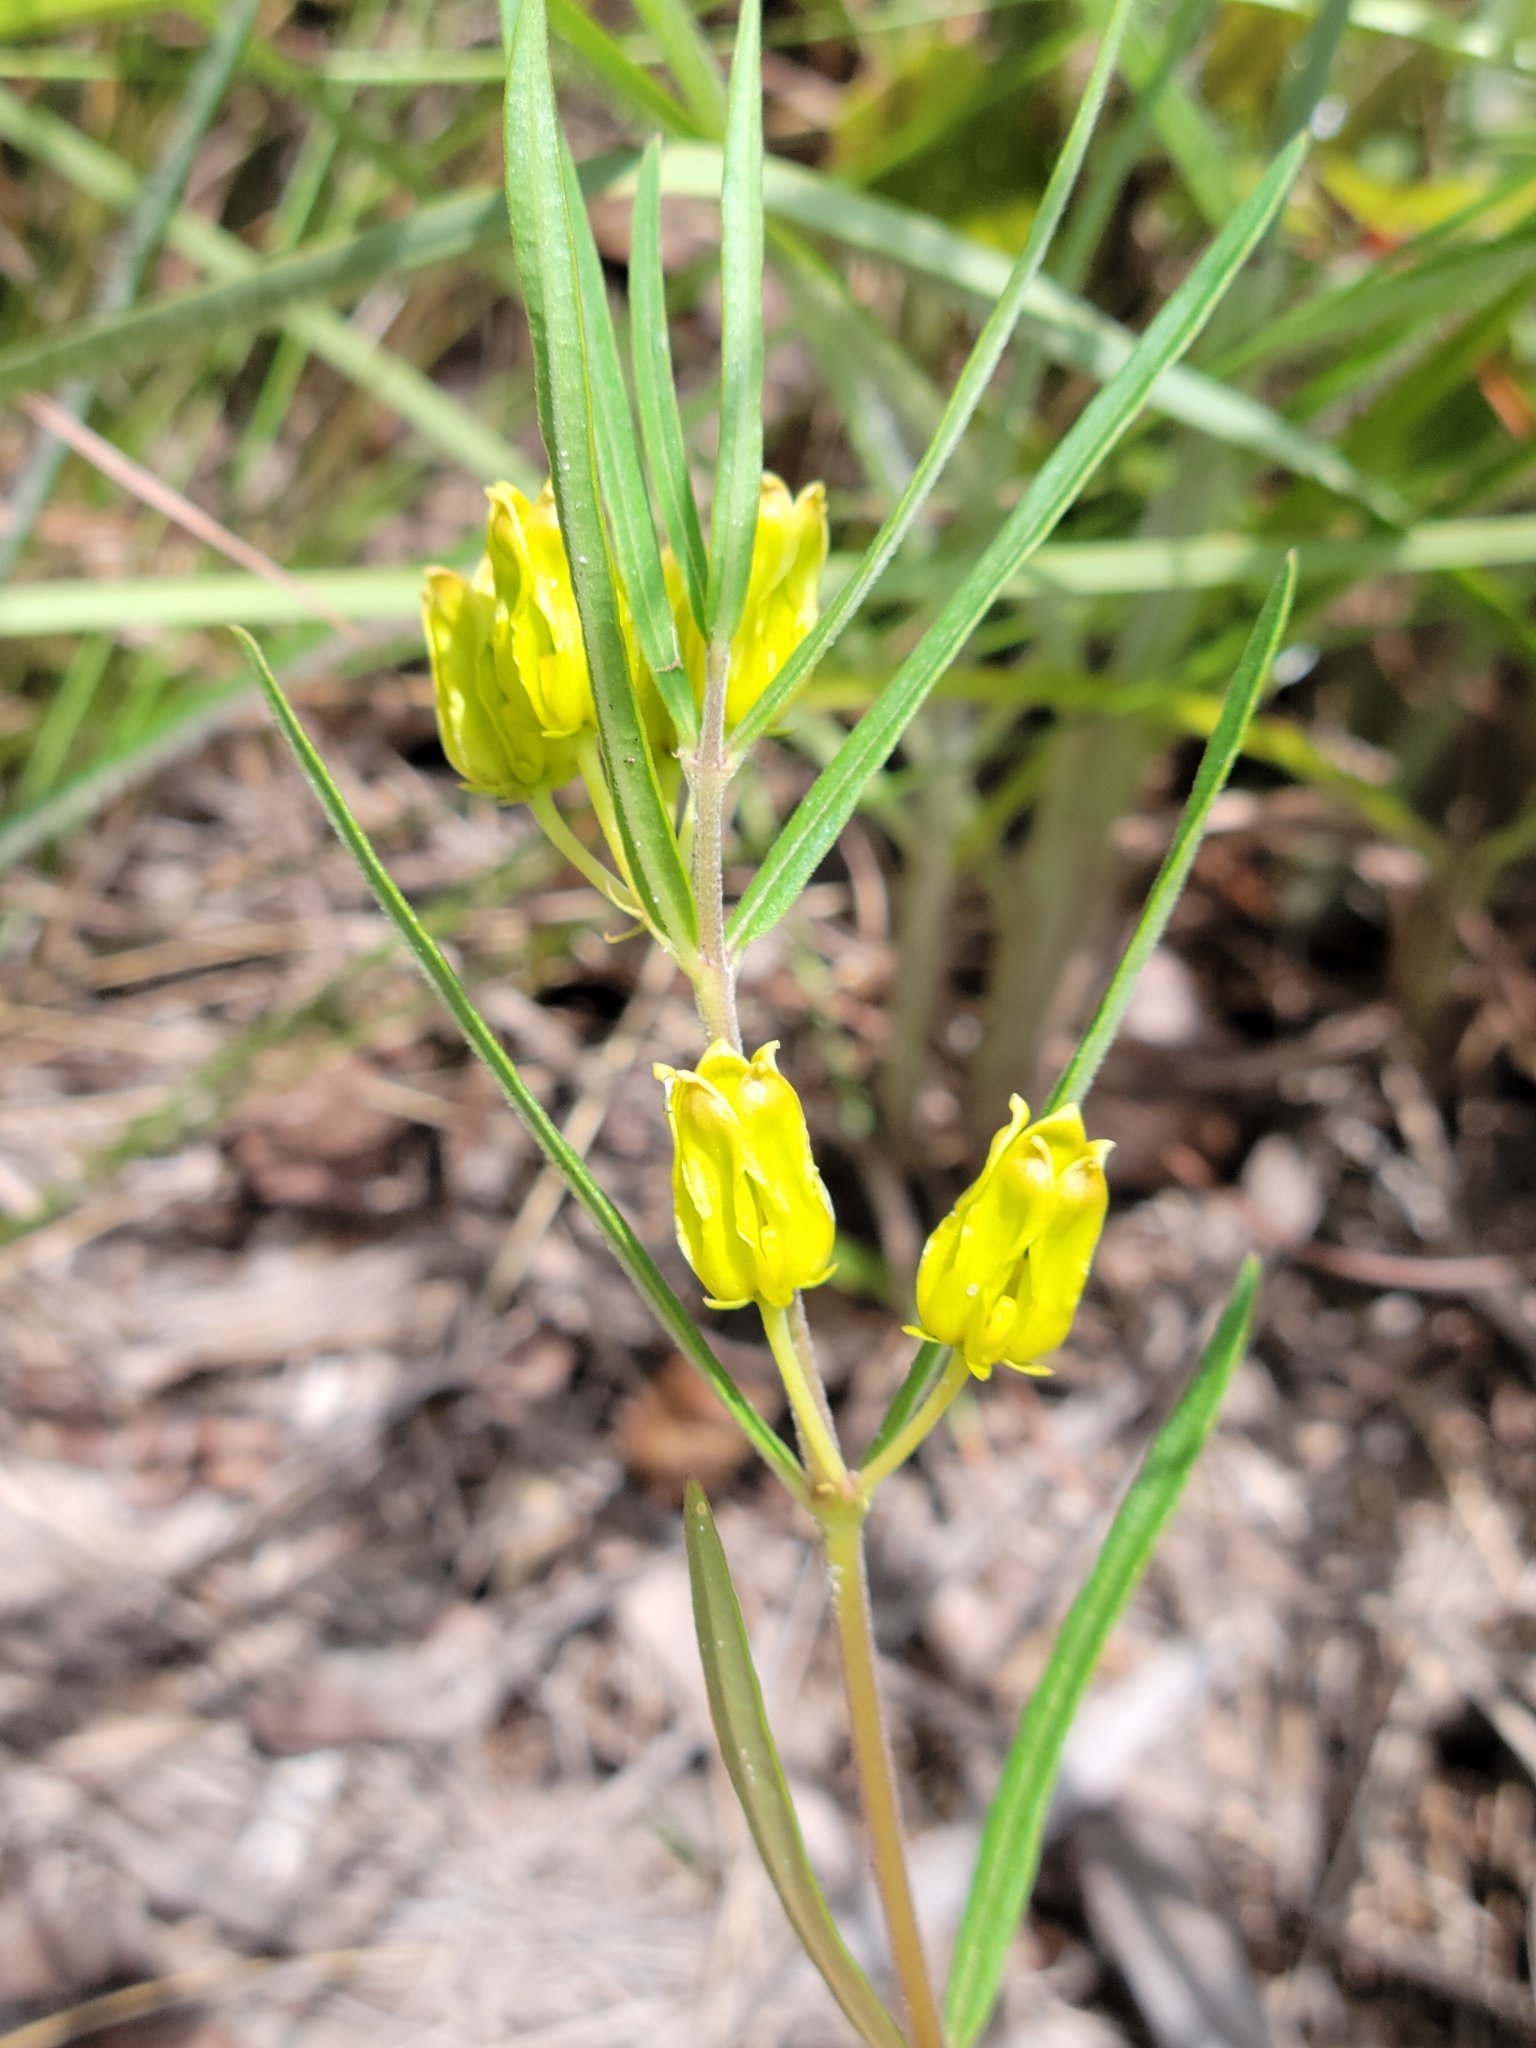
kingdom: Plantae
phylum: Tracheophyta
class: Magnoliopsida
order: Gentianales
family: Apocynaceae
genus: Asclepias
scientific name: Asclepias pedicellata
